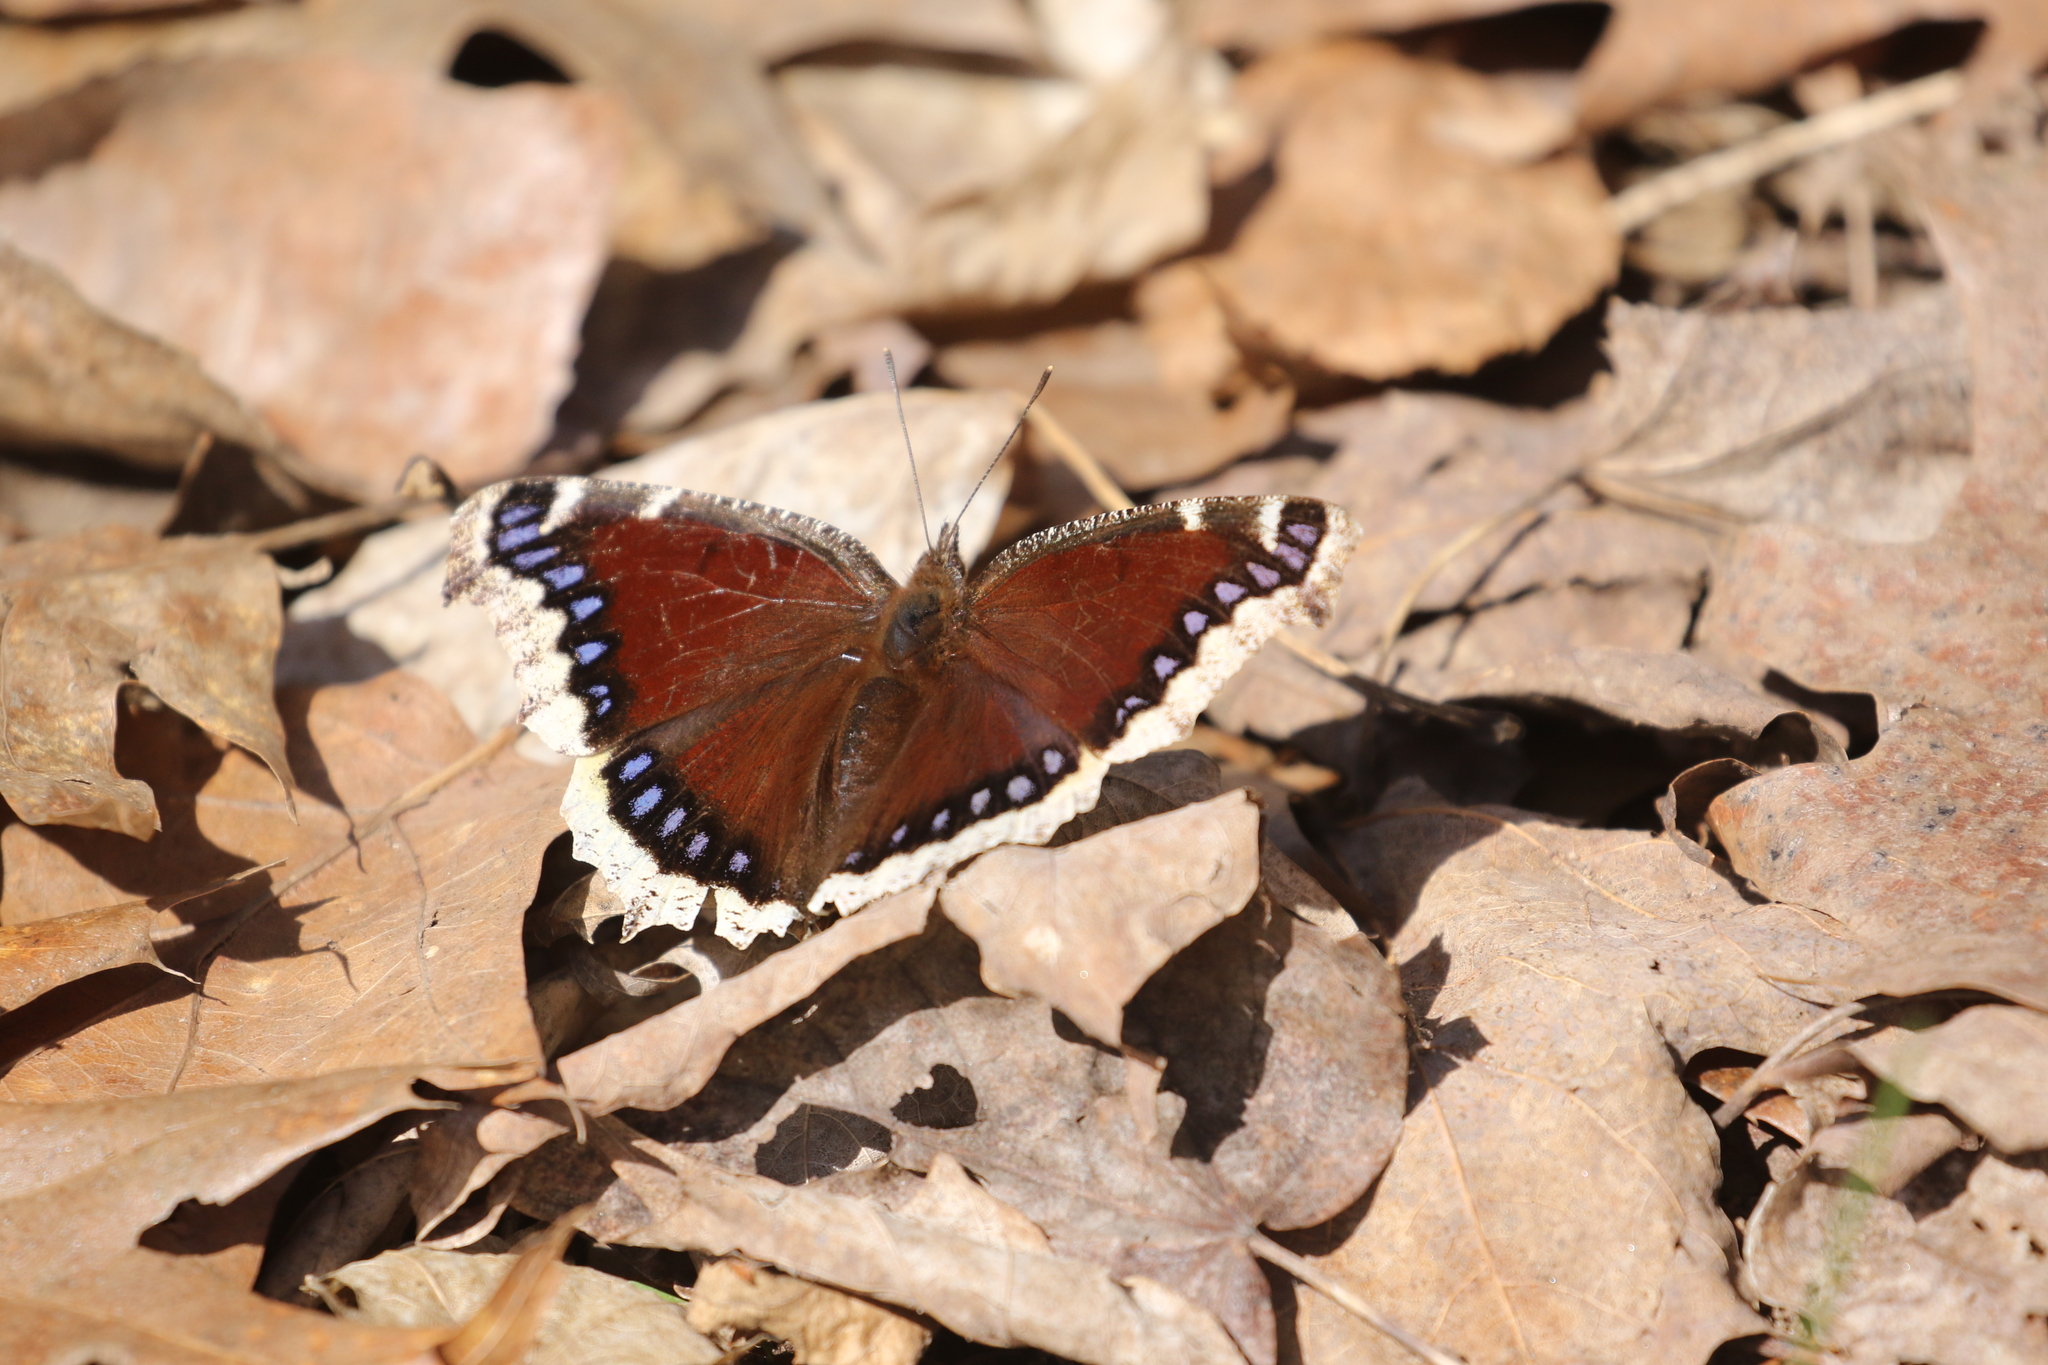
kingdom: Animalia
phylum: Arthropoda
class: Insecta
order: Lepidoptera
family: Nymphalidae
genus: Nymphalis
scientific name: Nymphalis antiopa
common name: Camberwell beauty
